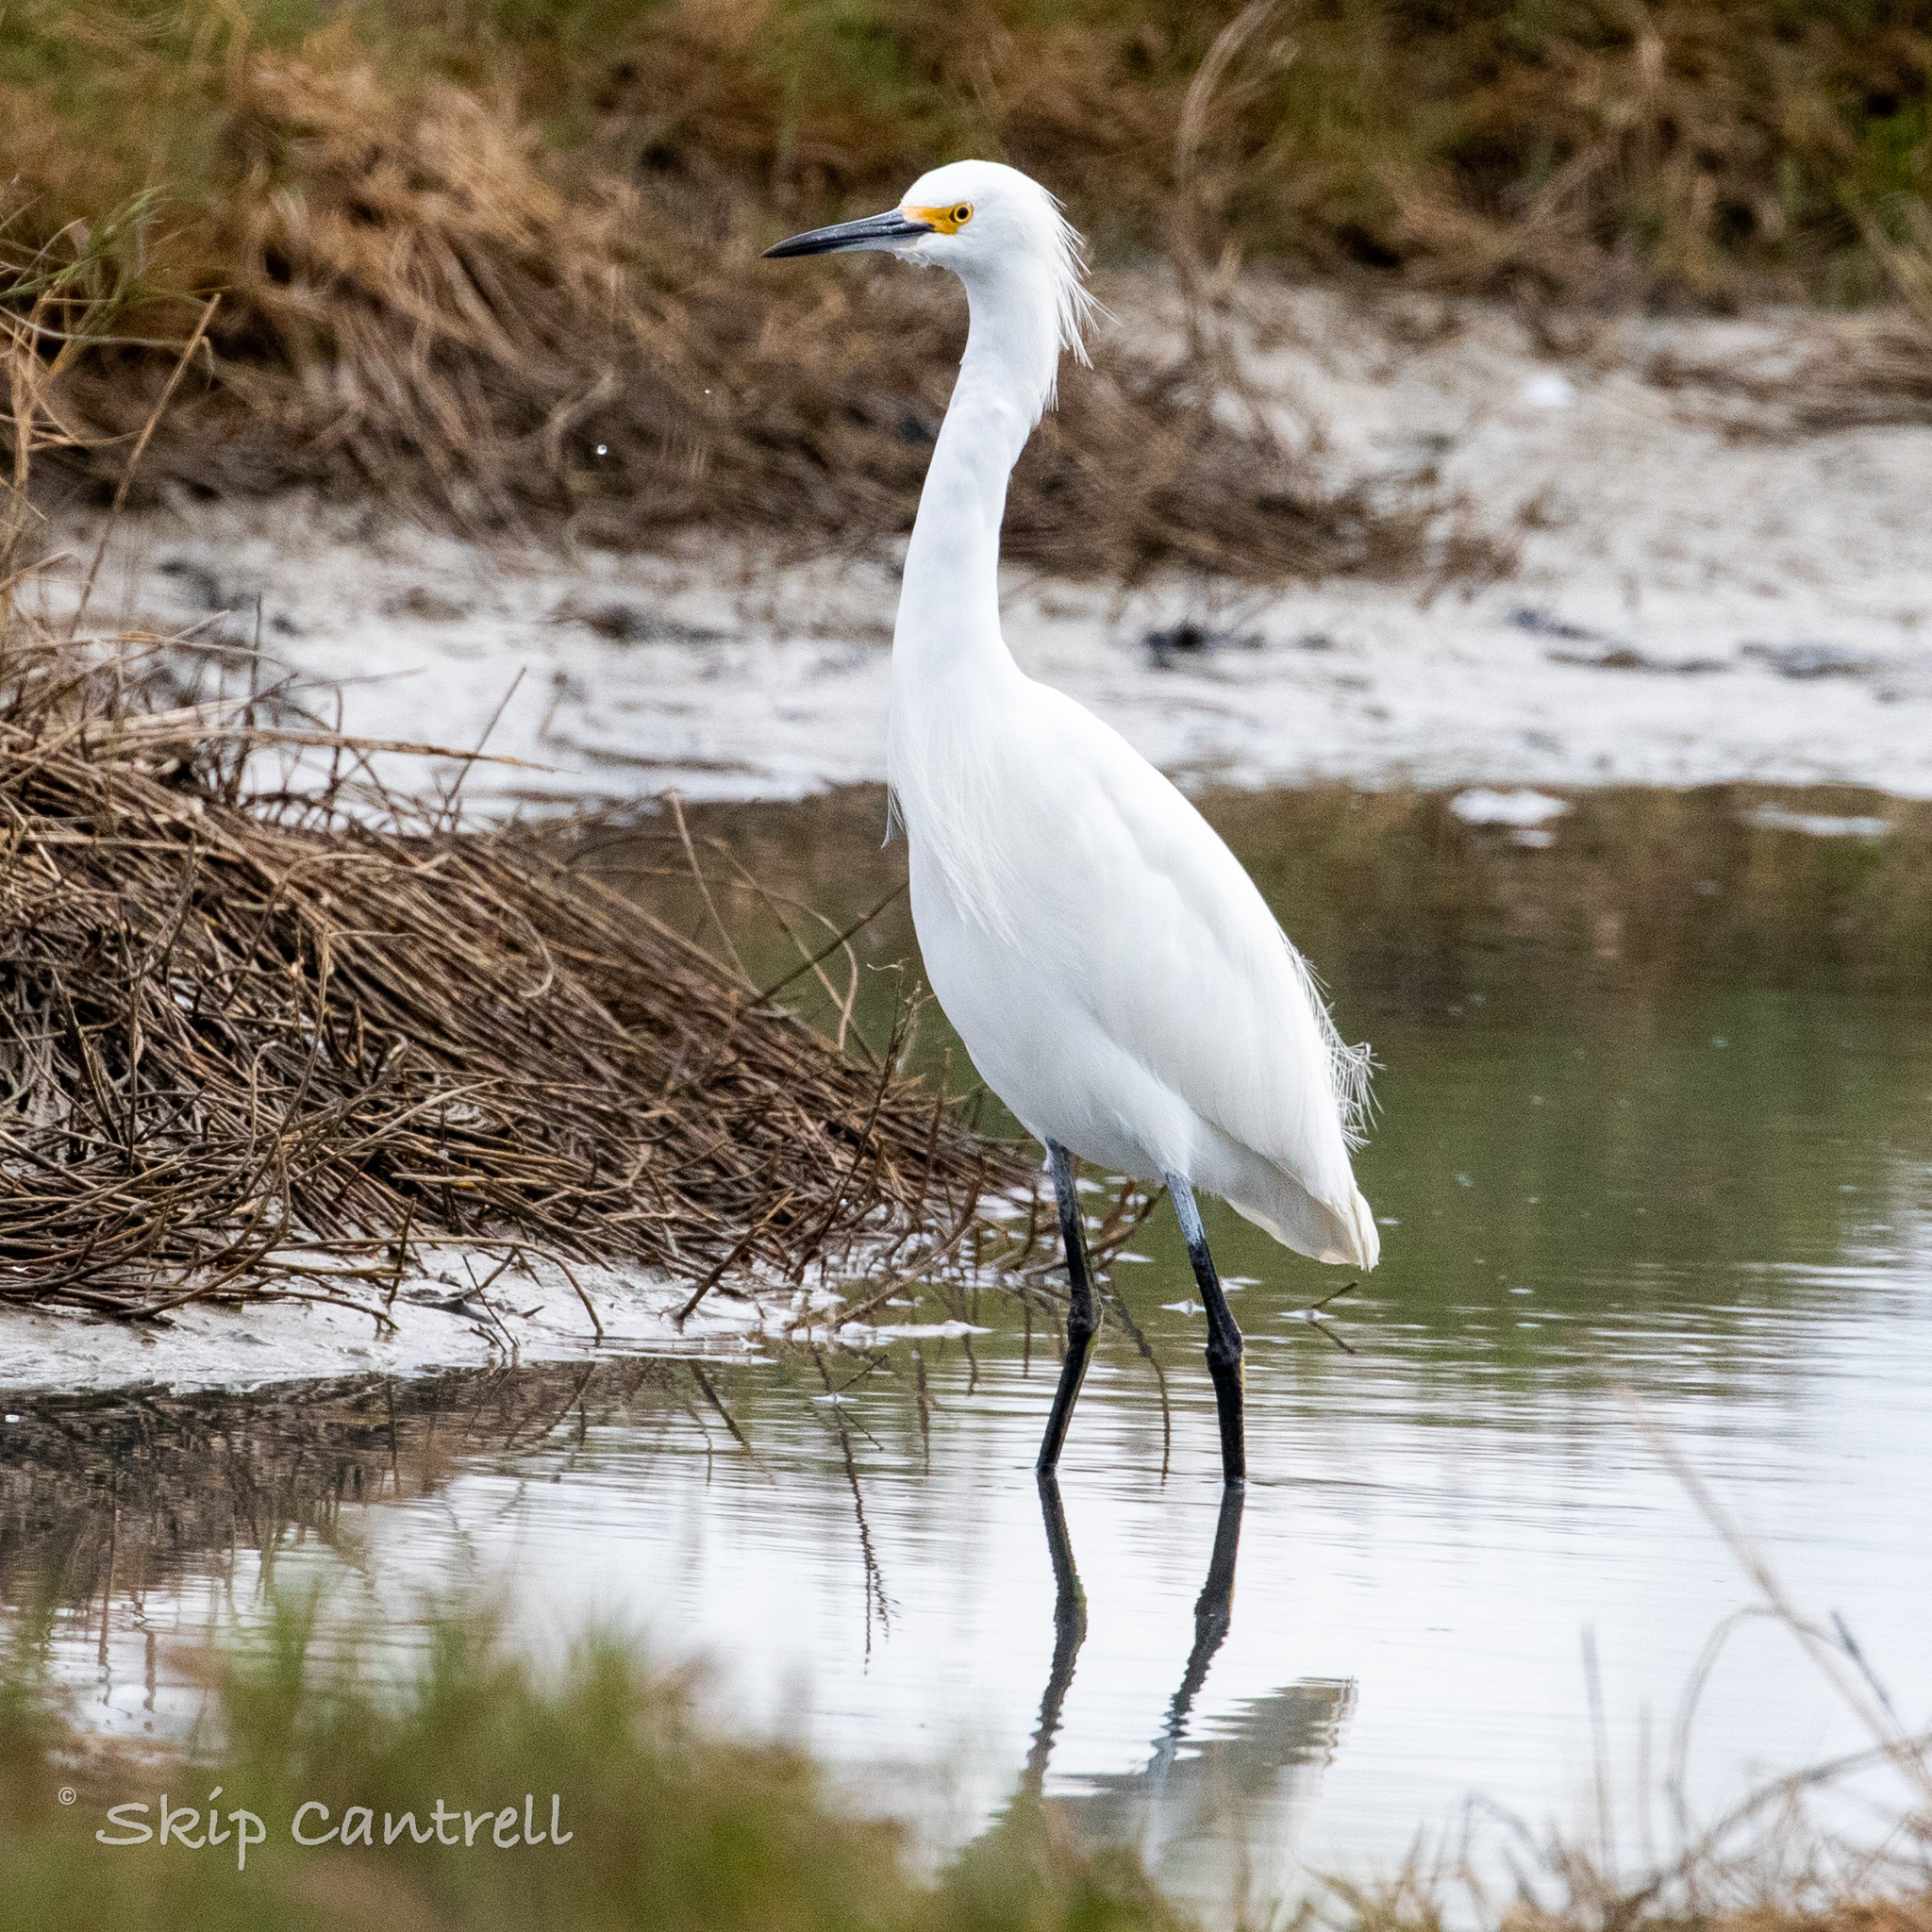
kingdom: Animalia
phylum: Chordata
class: Aves
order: Pelecaniformes
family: Ardeidae
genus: Egretta
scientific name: Egretta thula
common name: Snowy egret
